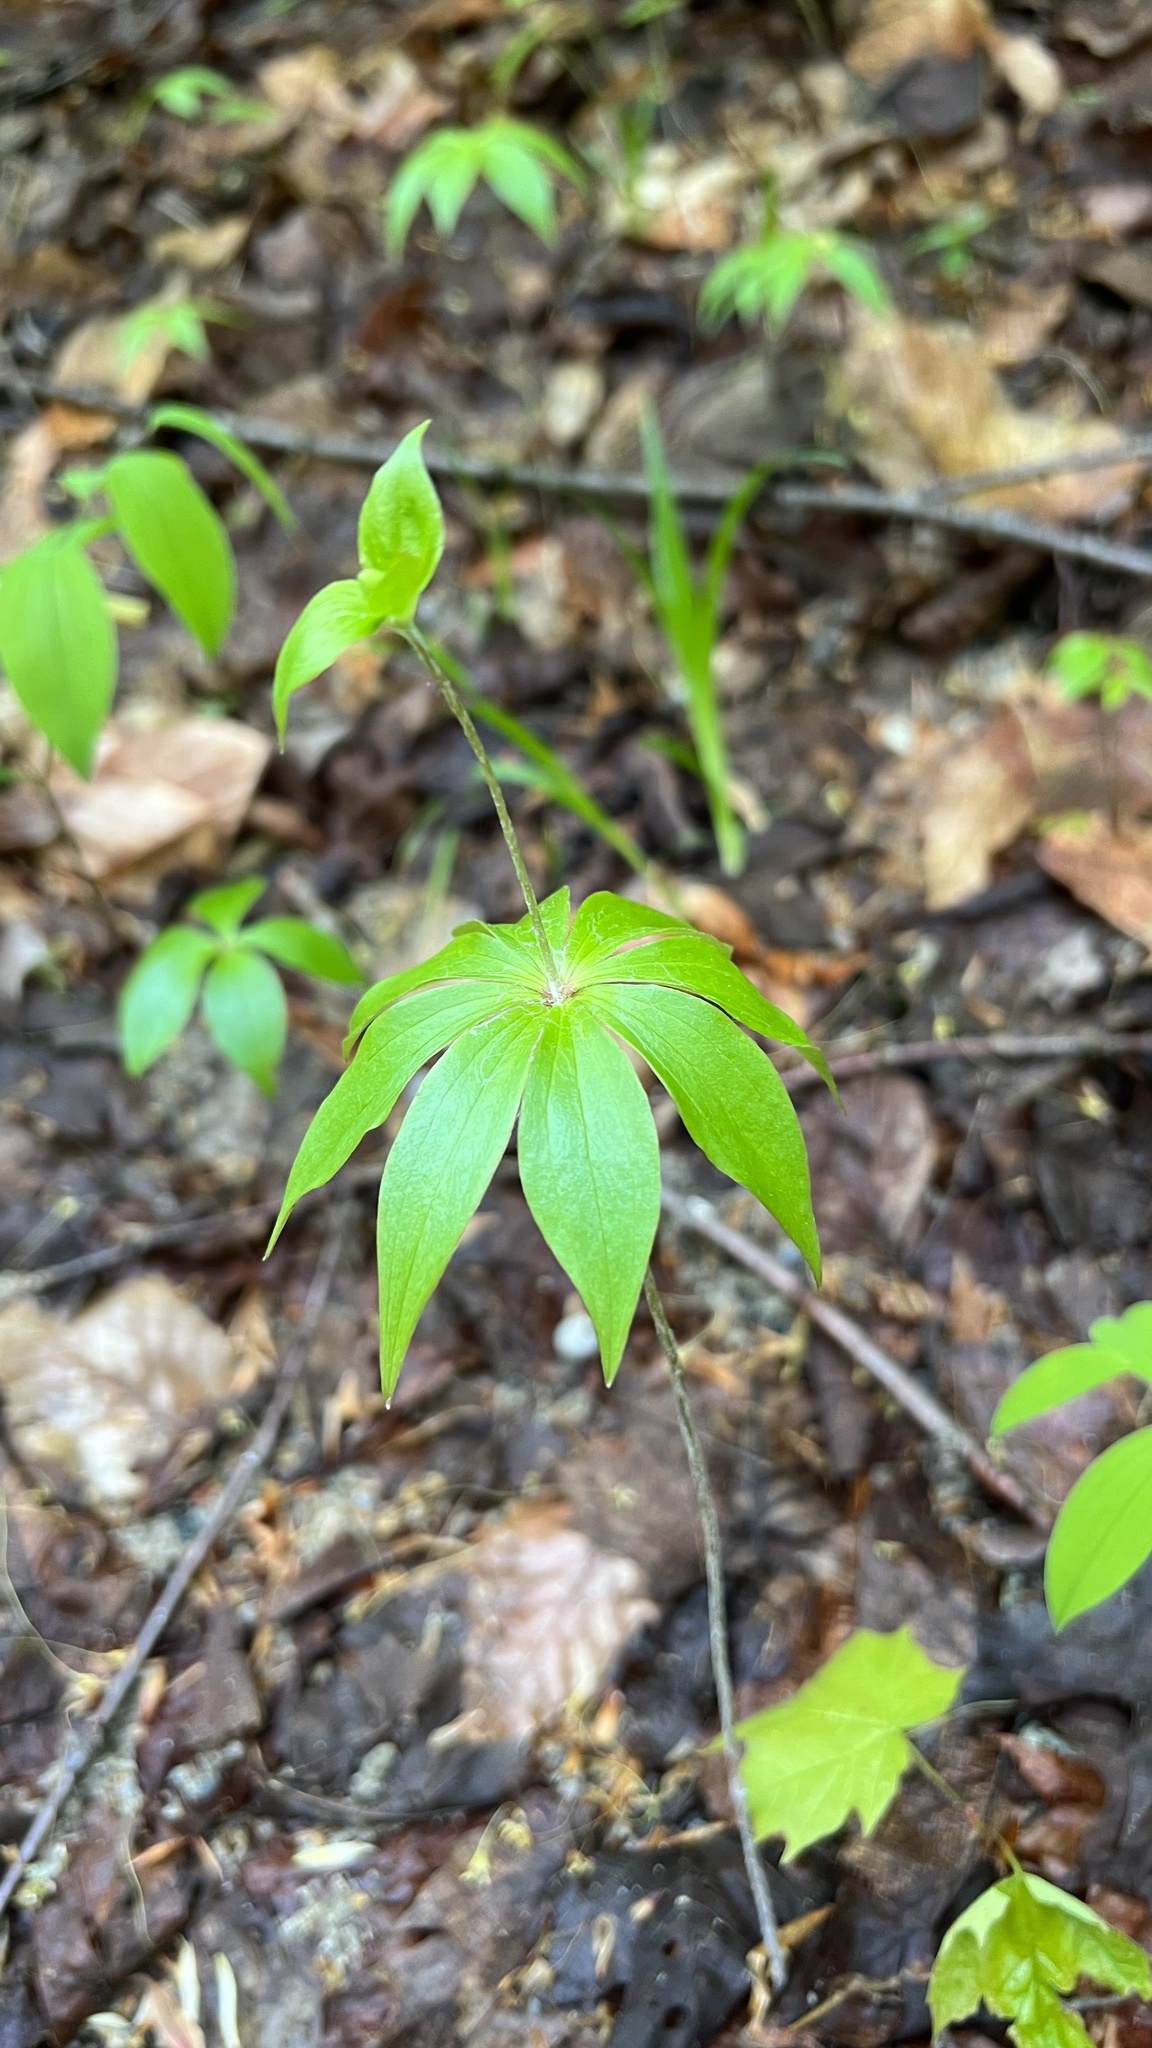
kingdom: Plantae
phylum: Tracheophyta
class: Liliopsida
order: Liliales
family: Liliaceae
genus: Medeola
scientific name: Medeola virginiana
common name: Indian cucumber-root
